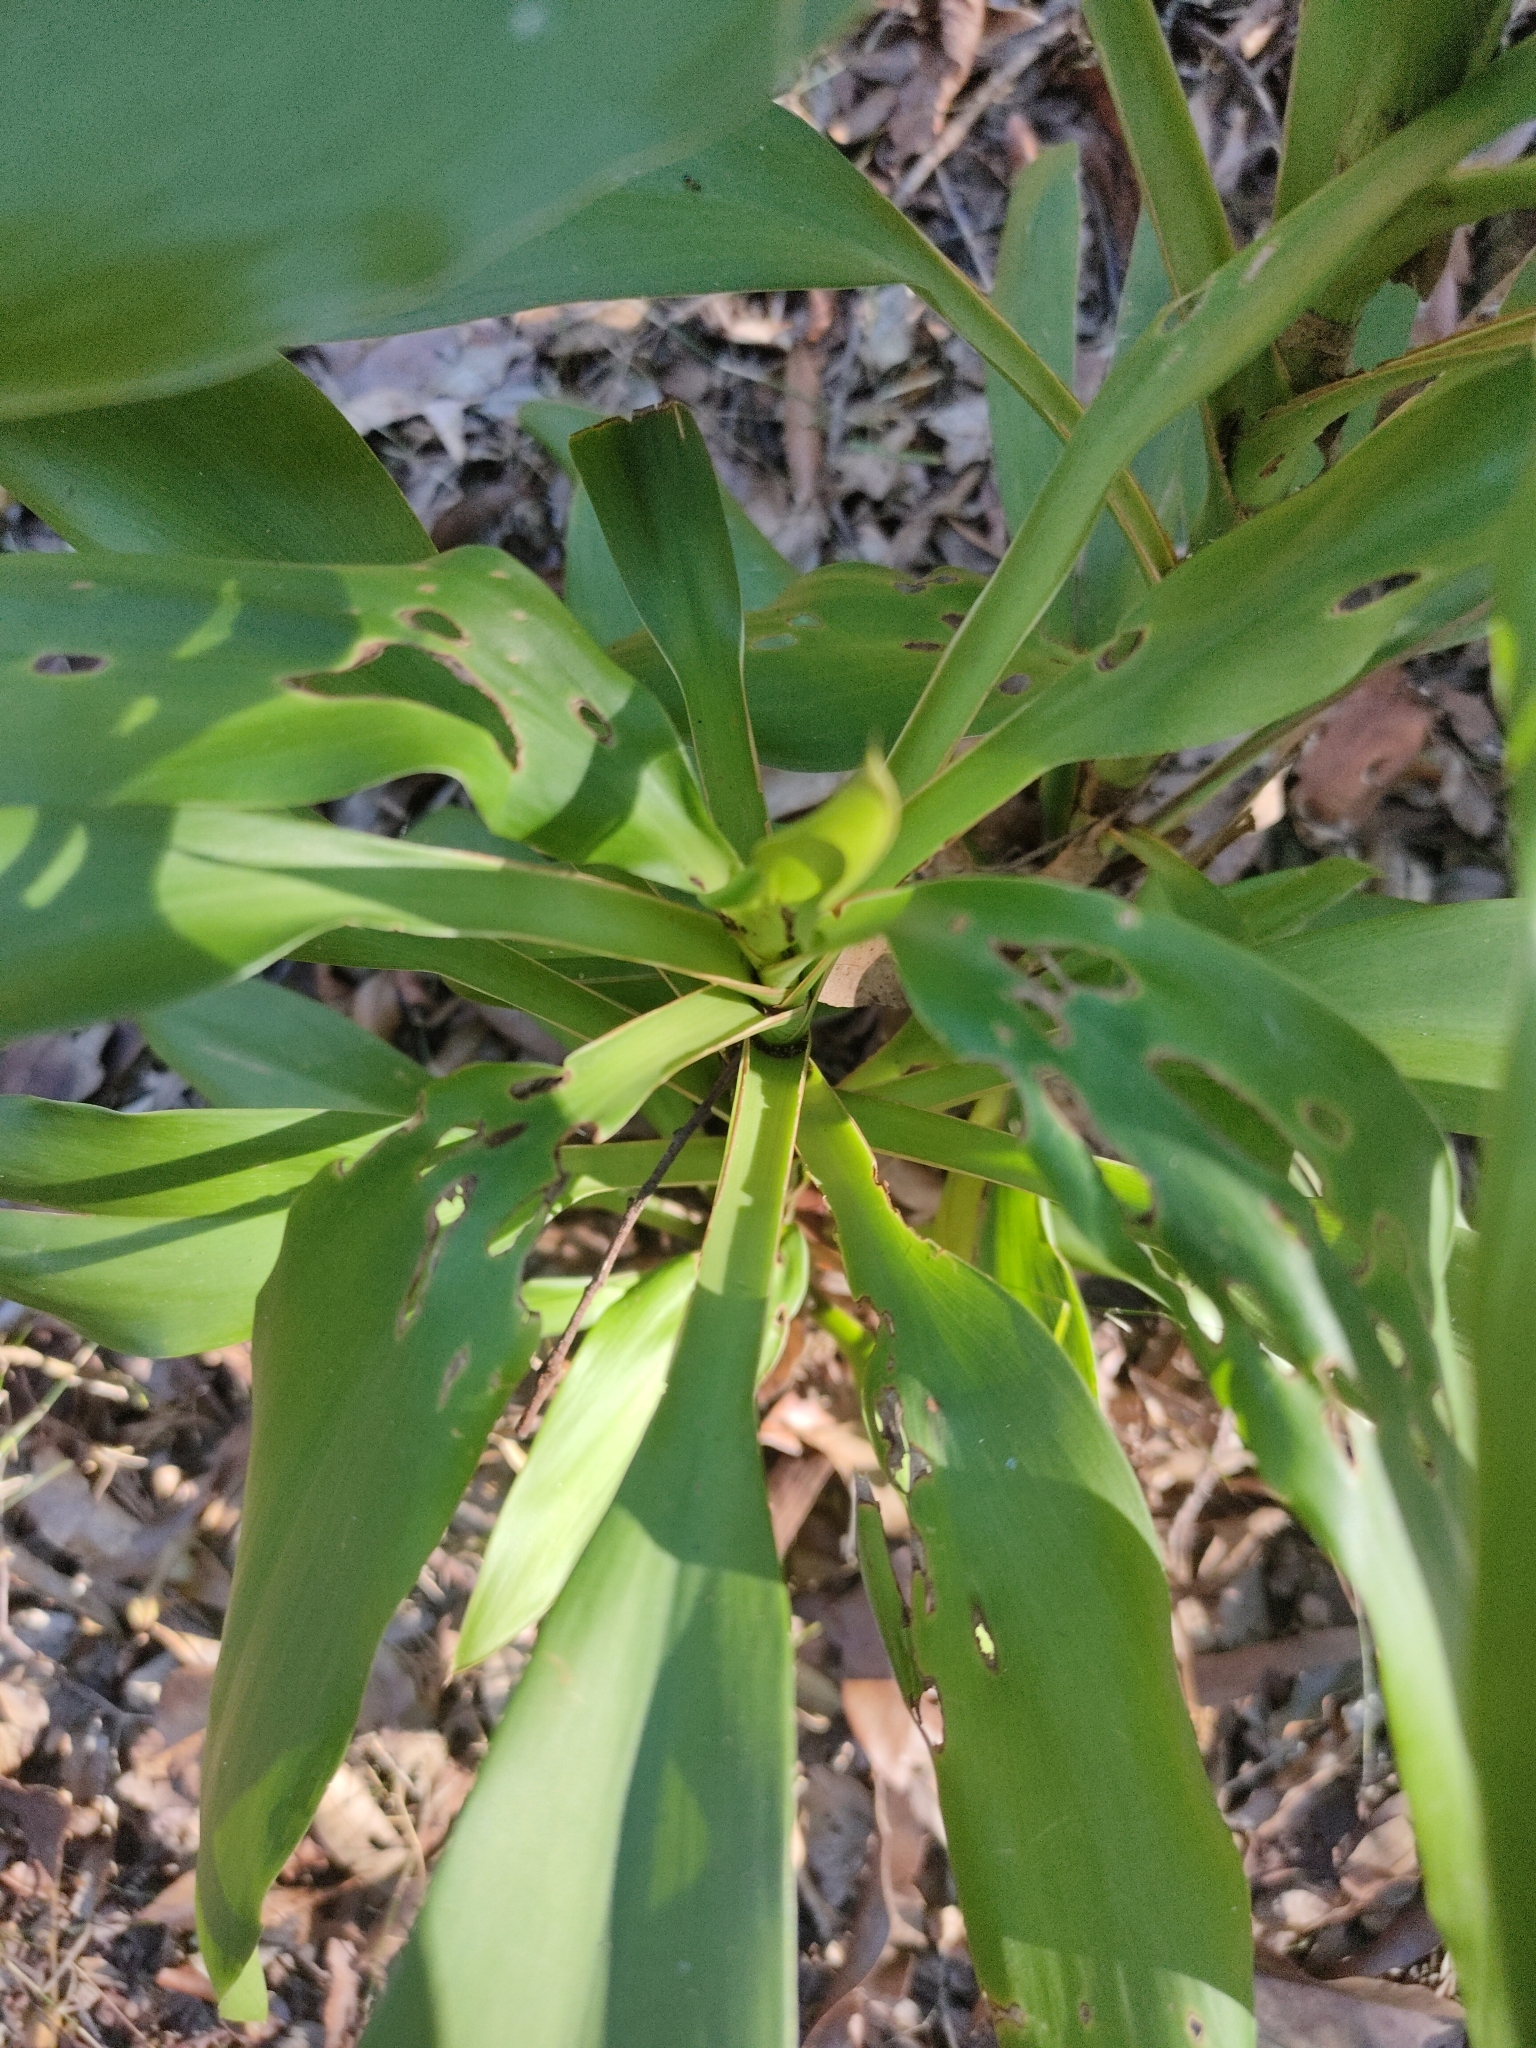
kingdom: Plantae
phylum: Tracheophyta
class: Liliopsida
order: Asparagales
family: Asparagaceae
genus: Cordyline
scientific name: Cordyline rubra
